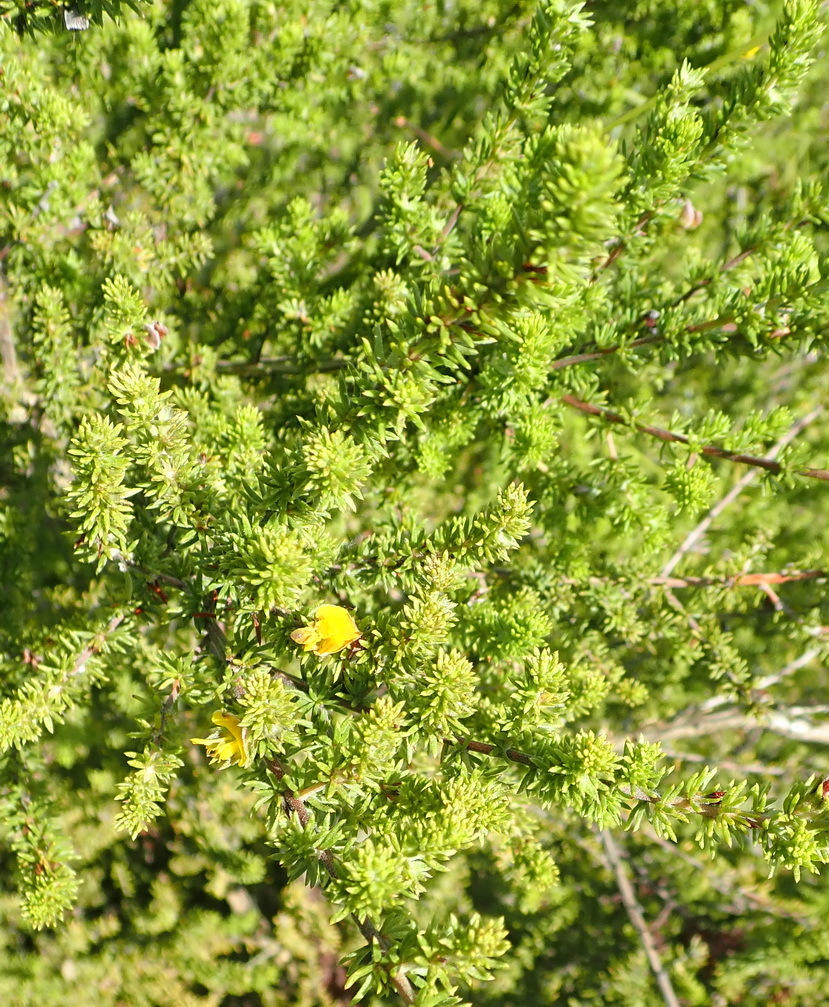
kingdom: Plantae
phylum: Tracheophyta
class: Magnoliopsida
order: Fabales
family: Fabaceae
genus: Aspalathus
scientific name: Aspalathus opaca
